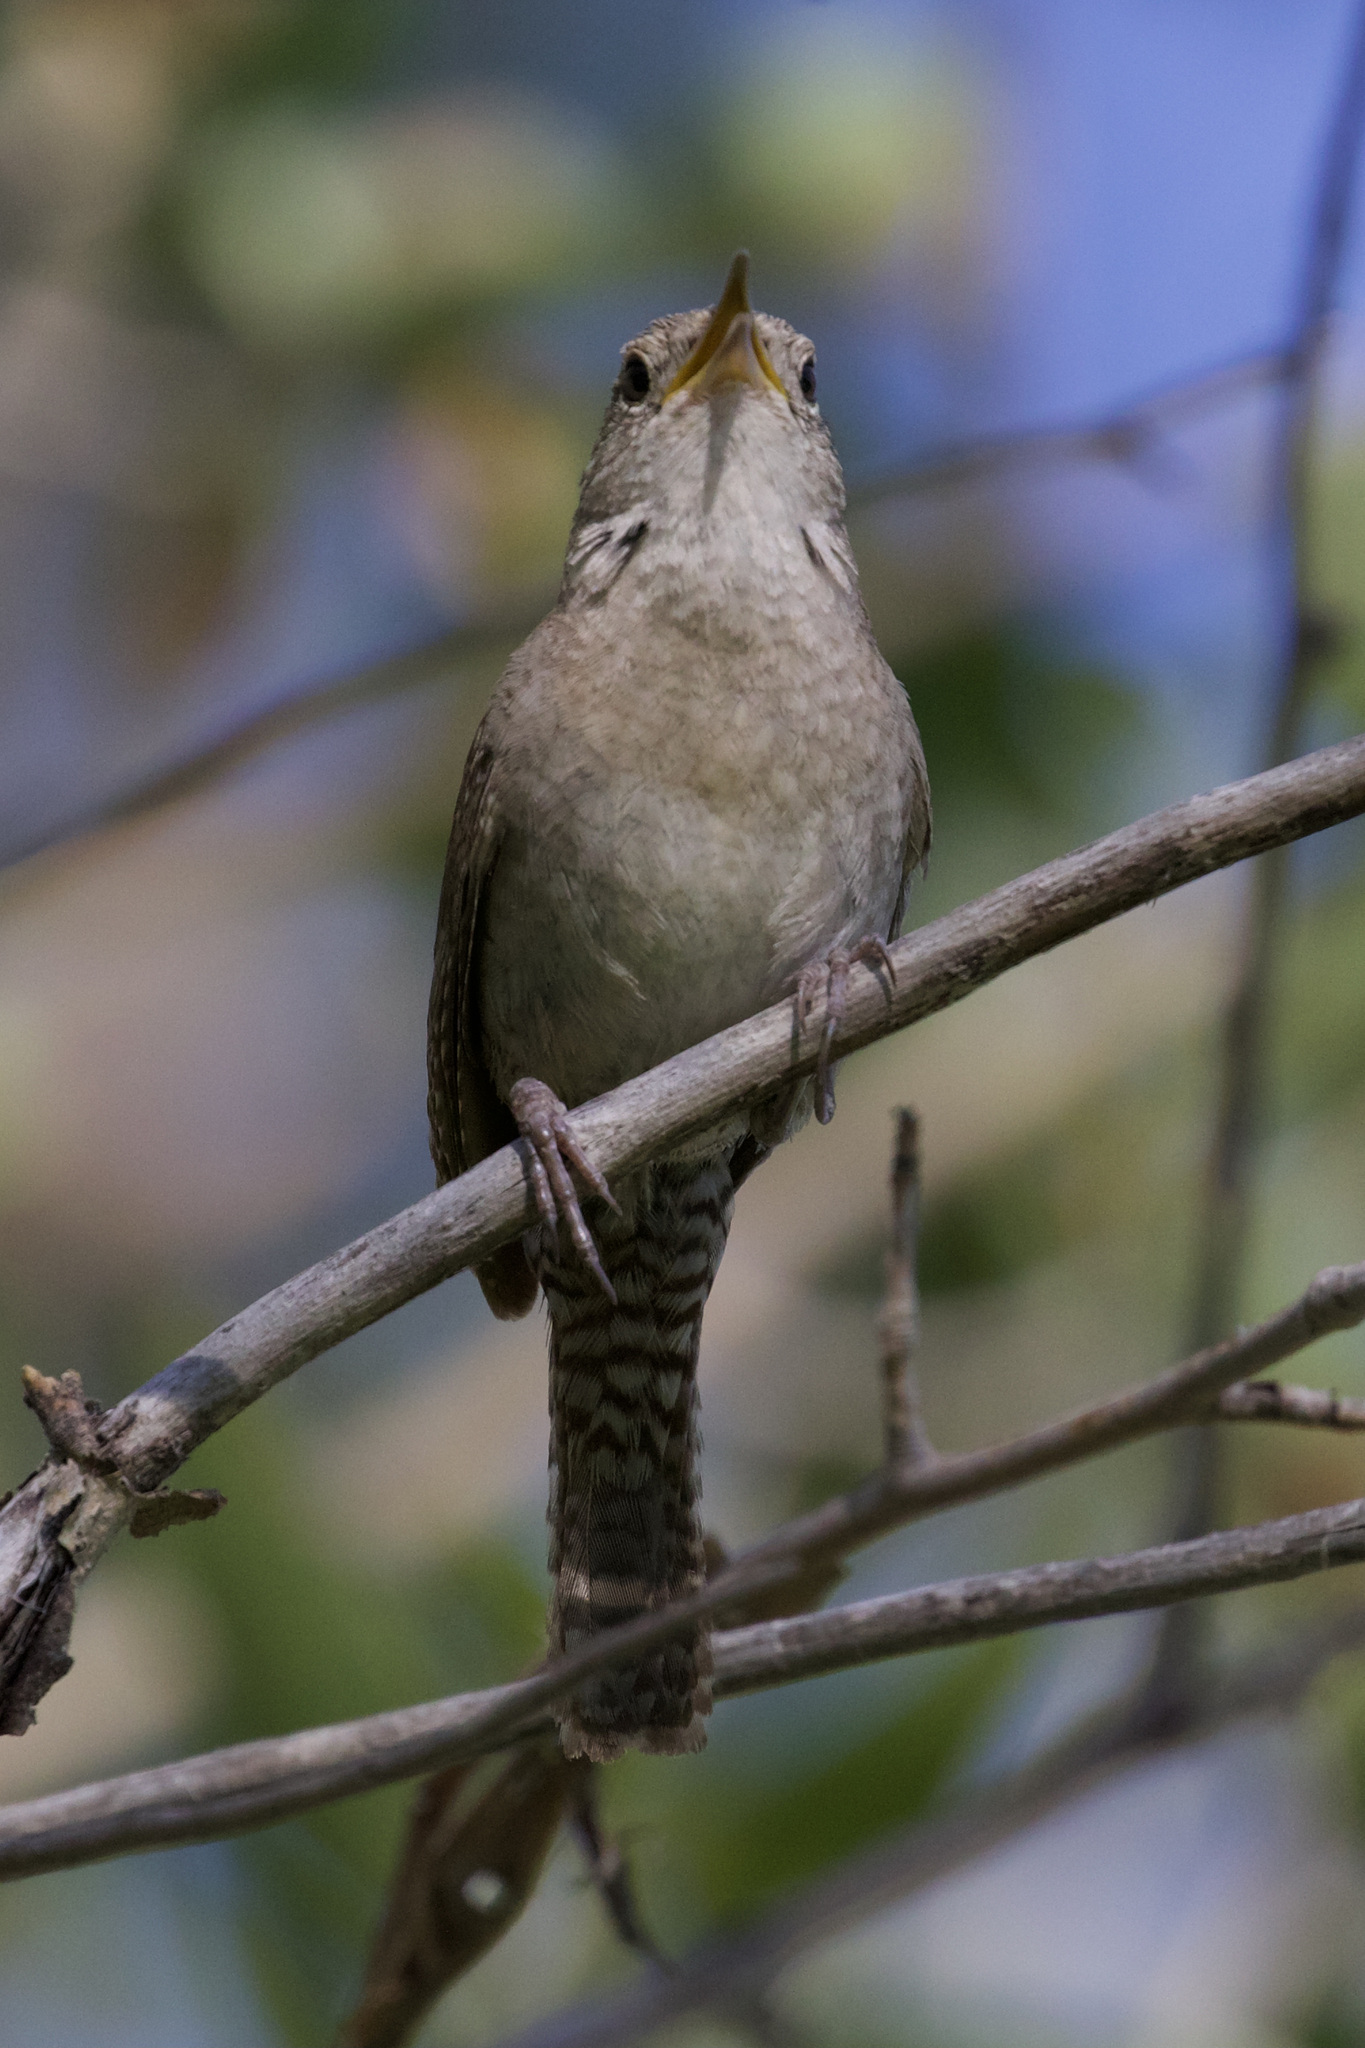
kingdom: Animalia
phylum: Chordata
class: Aves
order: Passeriformes
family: Troglodytidae
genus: Troglodytes
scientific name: Troglodytes aedon
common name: House wren
